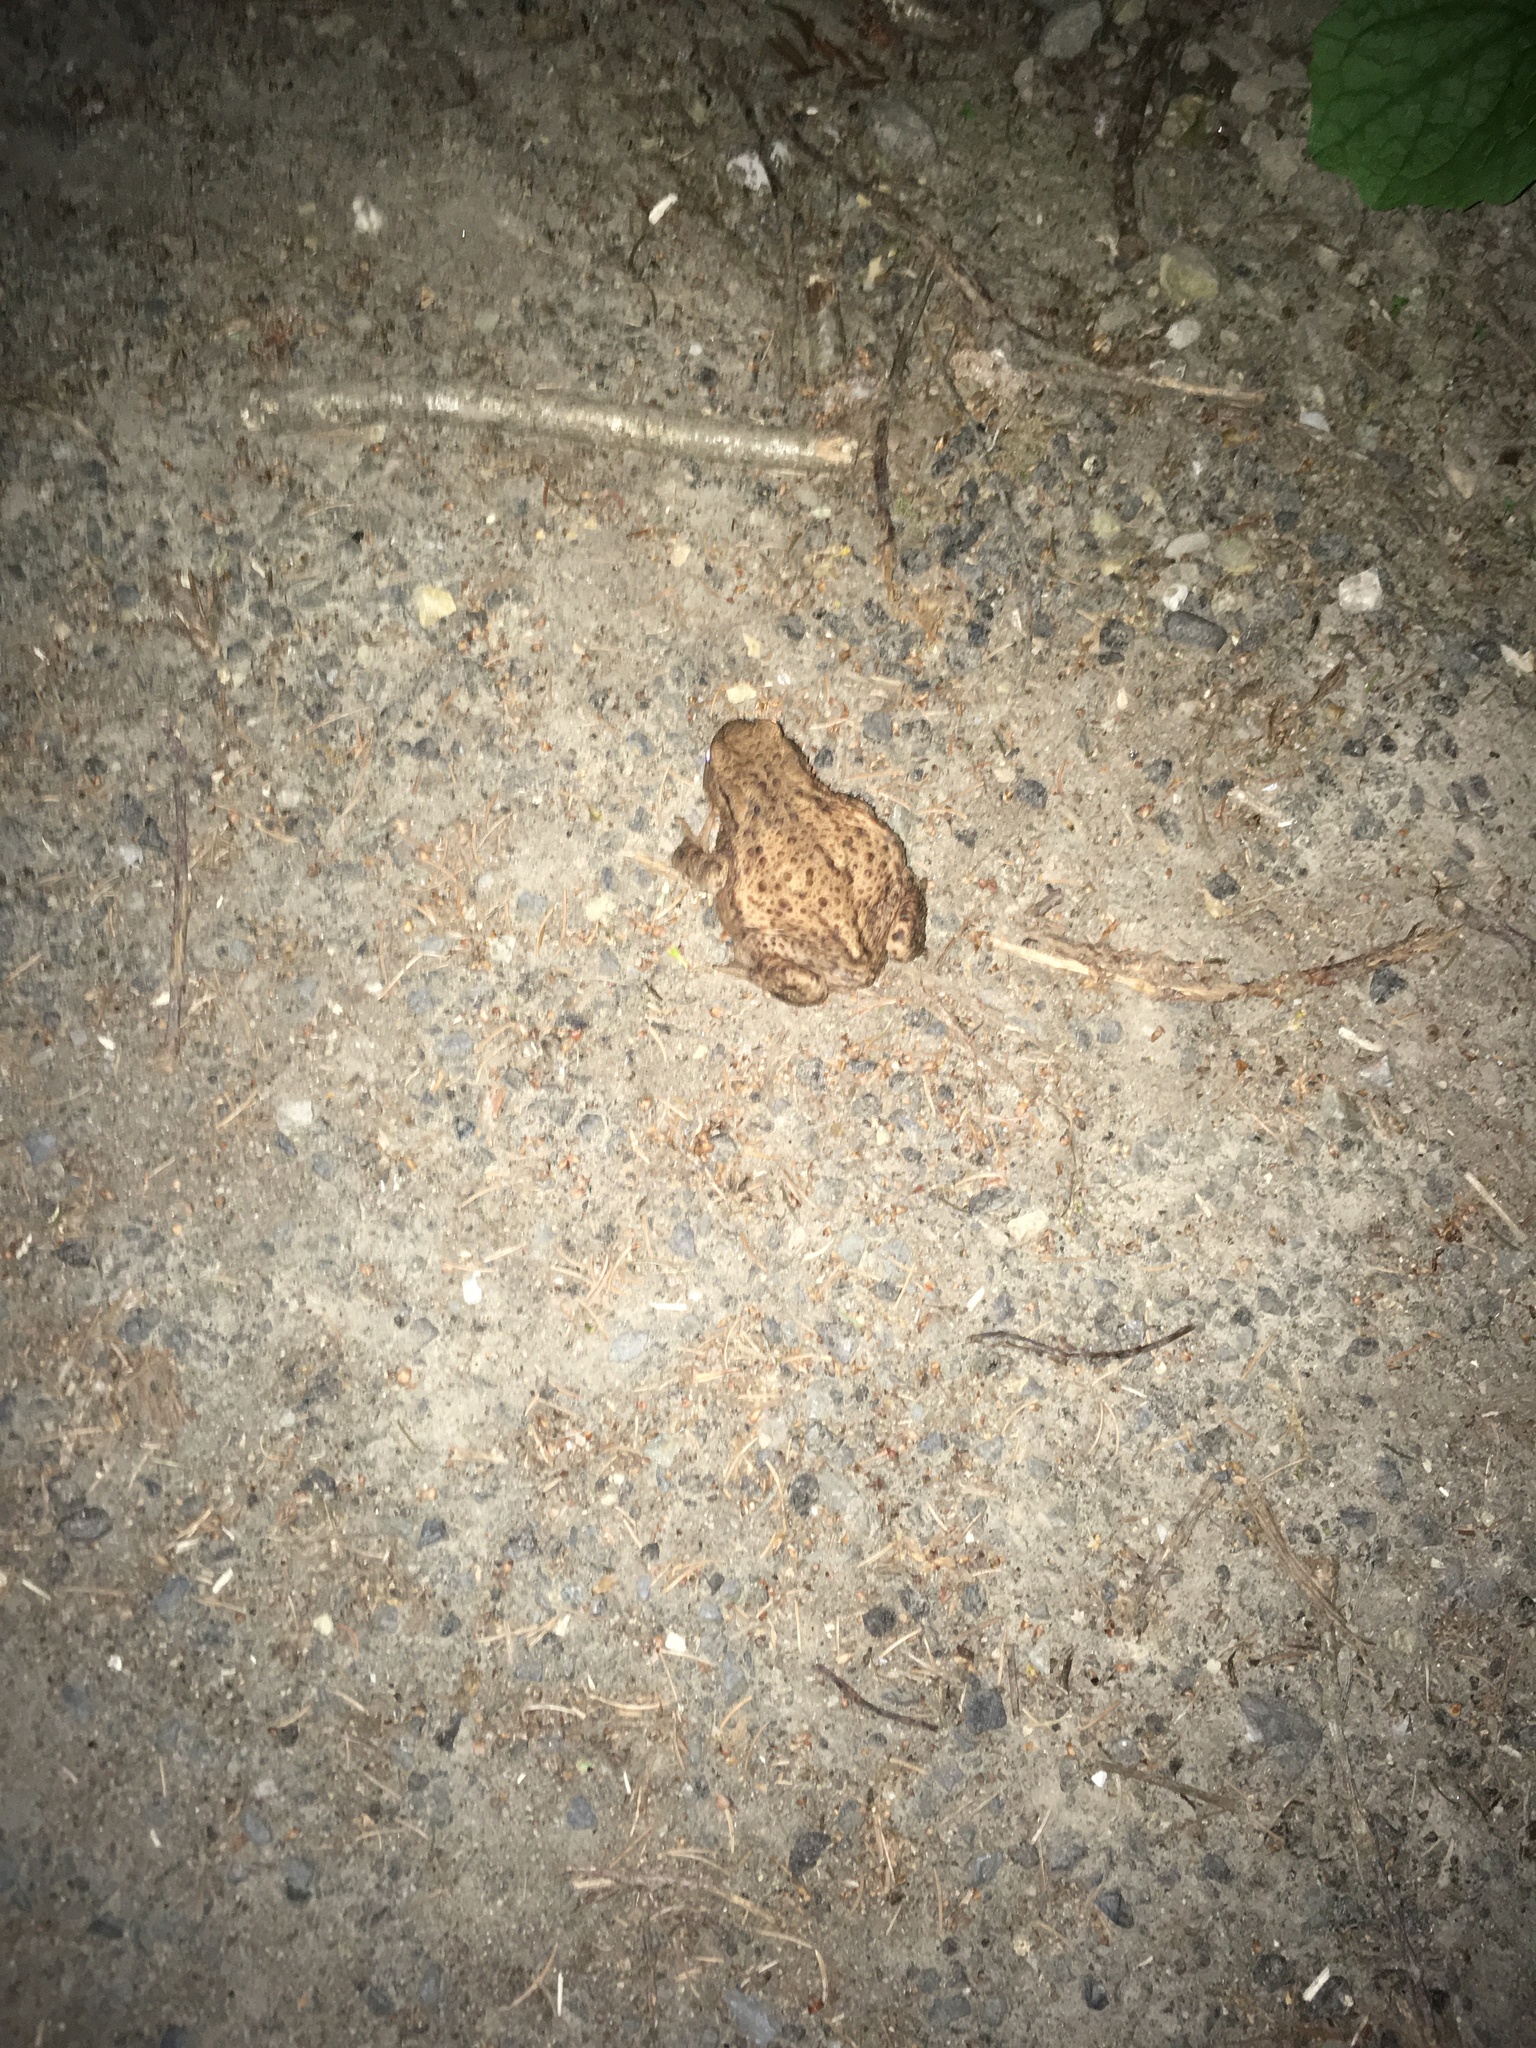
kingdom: Animalia
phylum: Chordata
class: Amphibia
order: Anura
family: Bufonidae
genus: Bufo
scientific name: Bufo bufo
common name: Common toad
